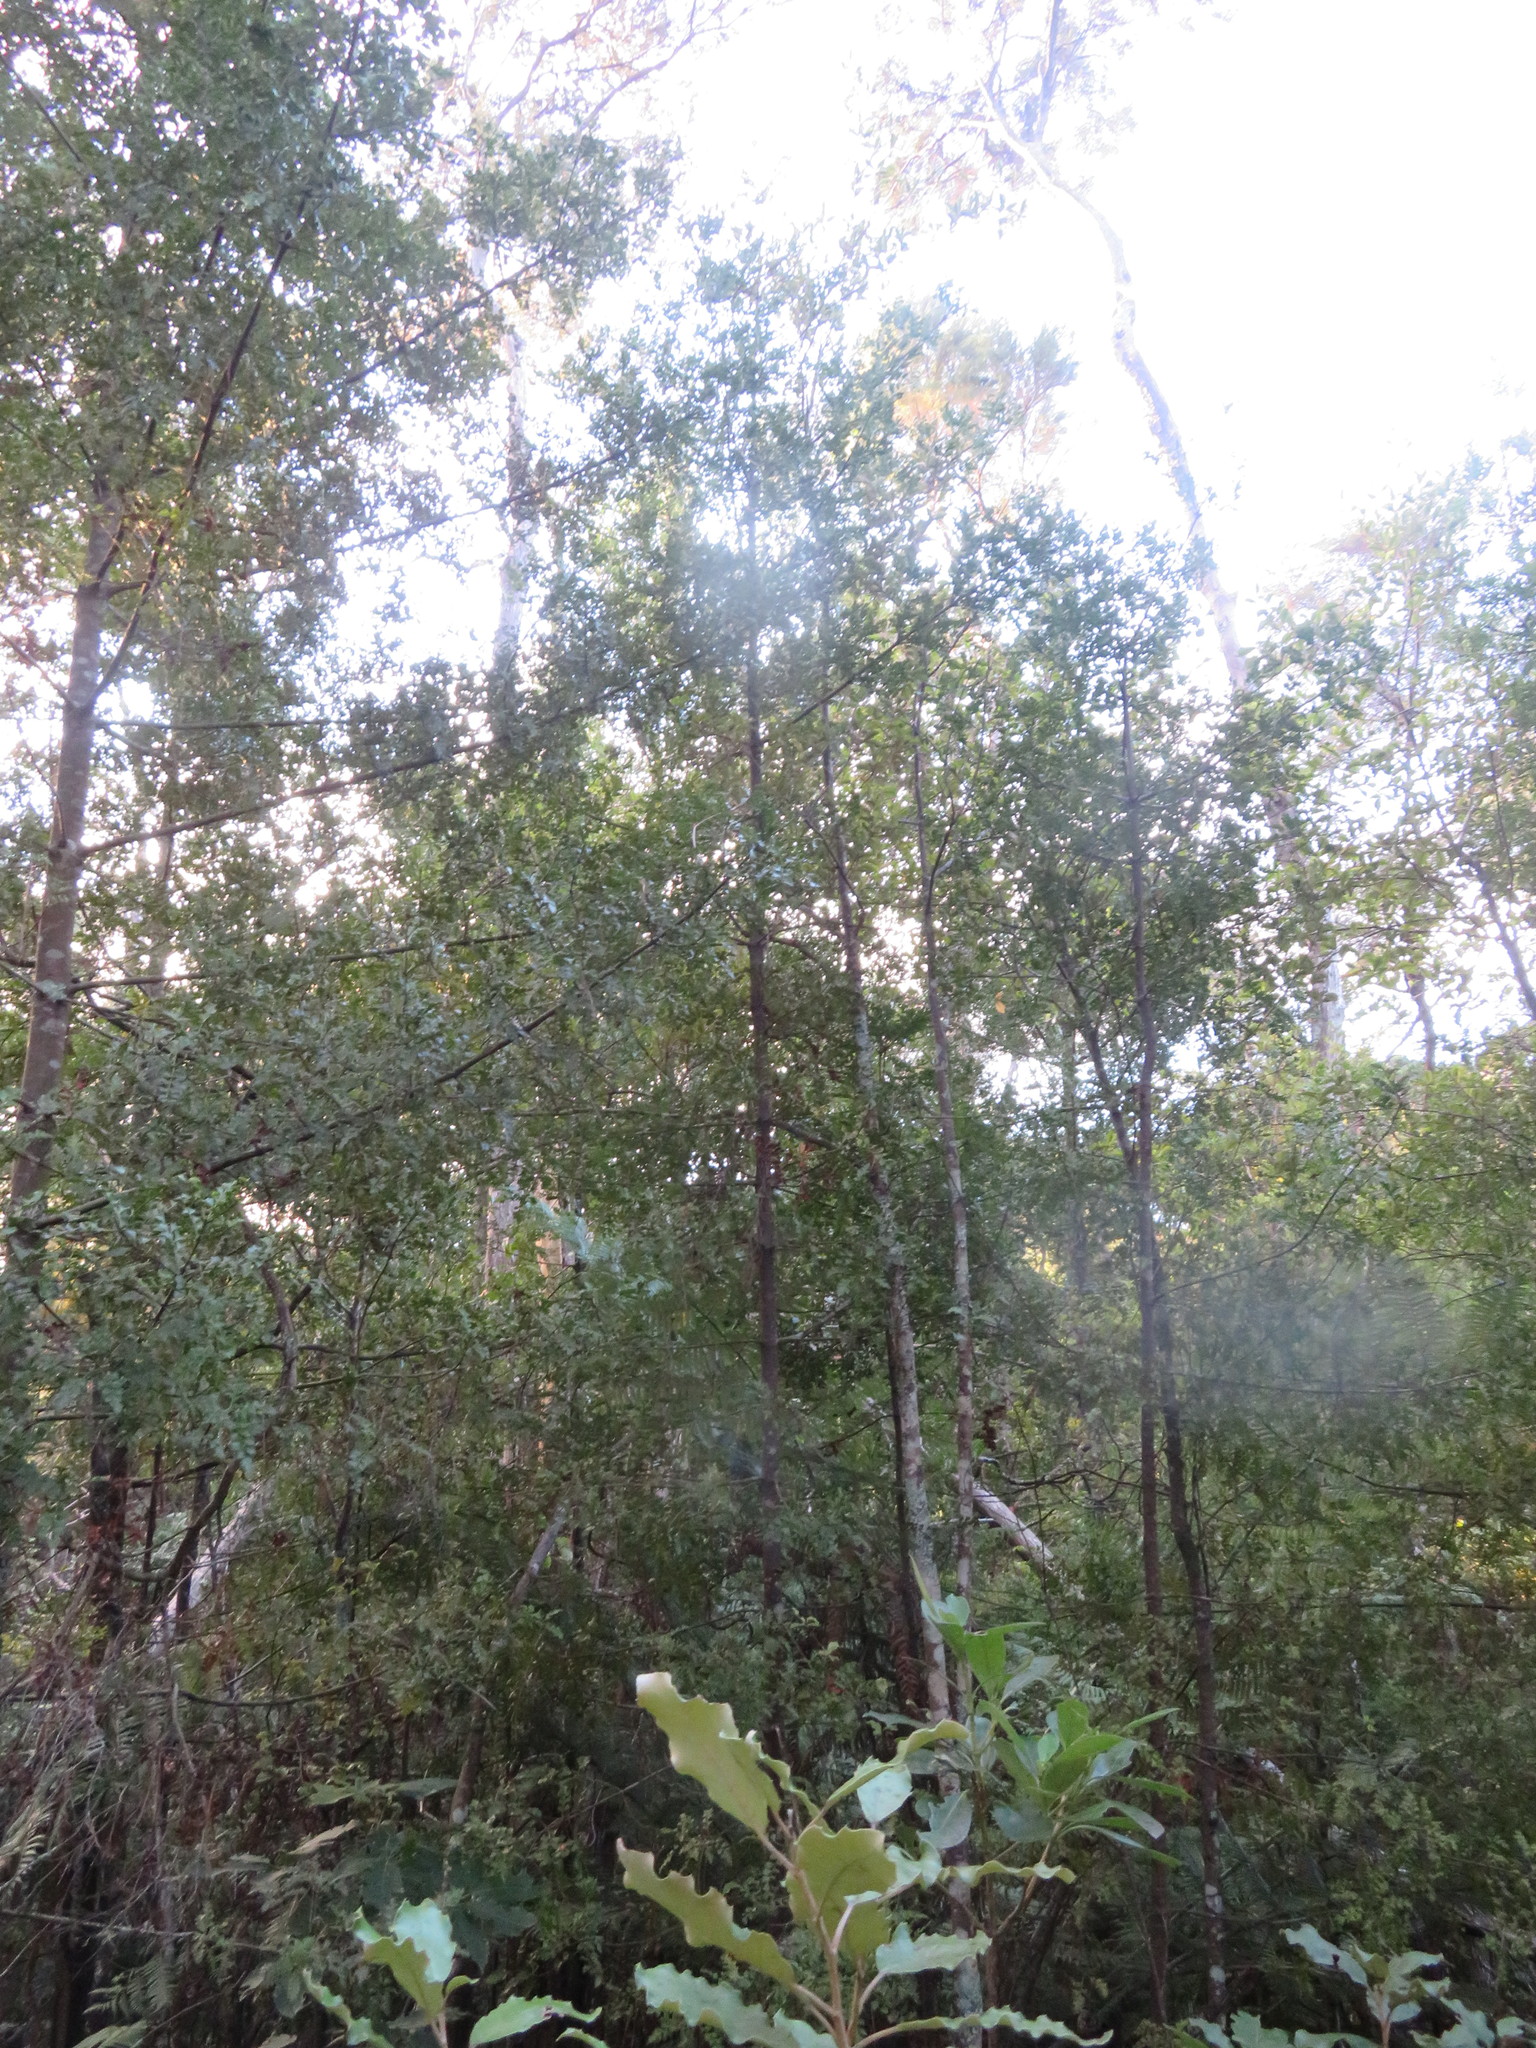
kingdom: Plantae
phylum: Tracheophyta
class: Pinopsida
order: Pinales
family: Phyllocladaceae
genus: Phyllocladus
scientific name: Phyllocladus trichomanoides
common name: Celery pine
